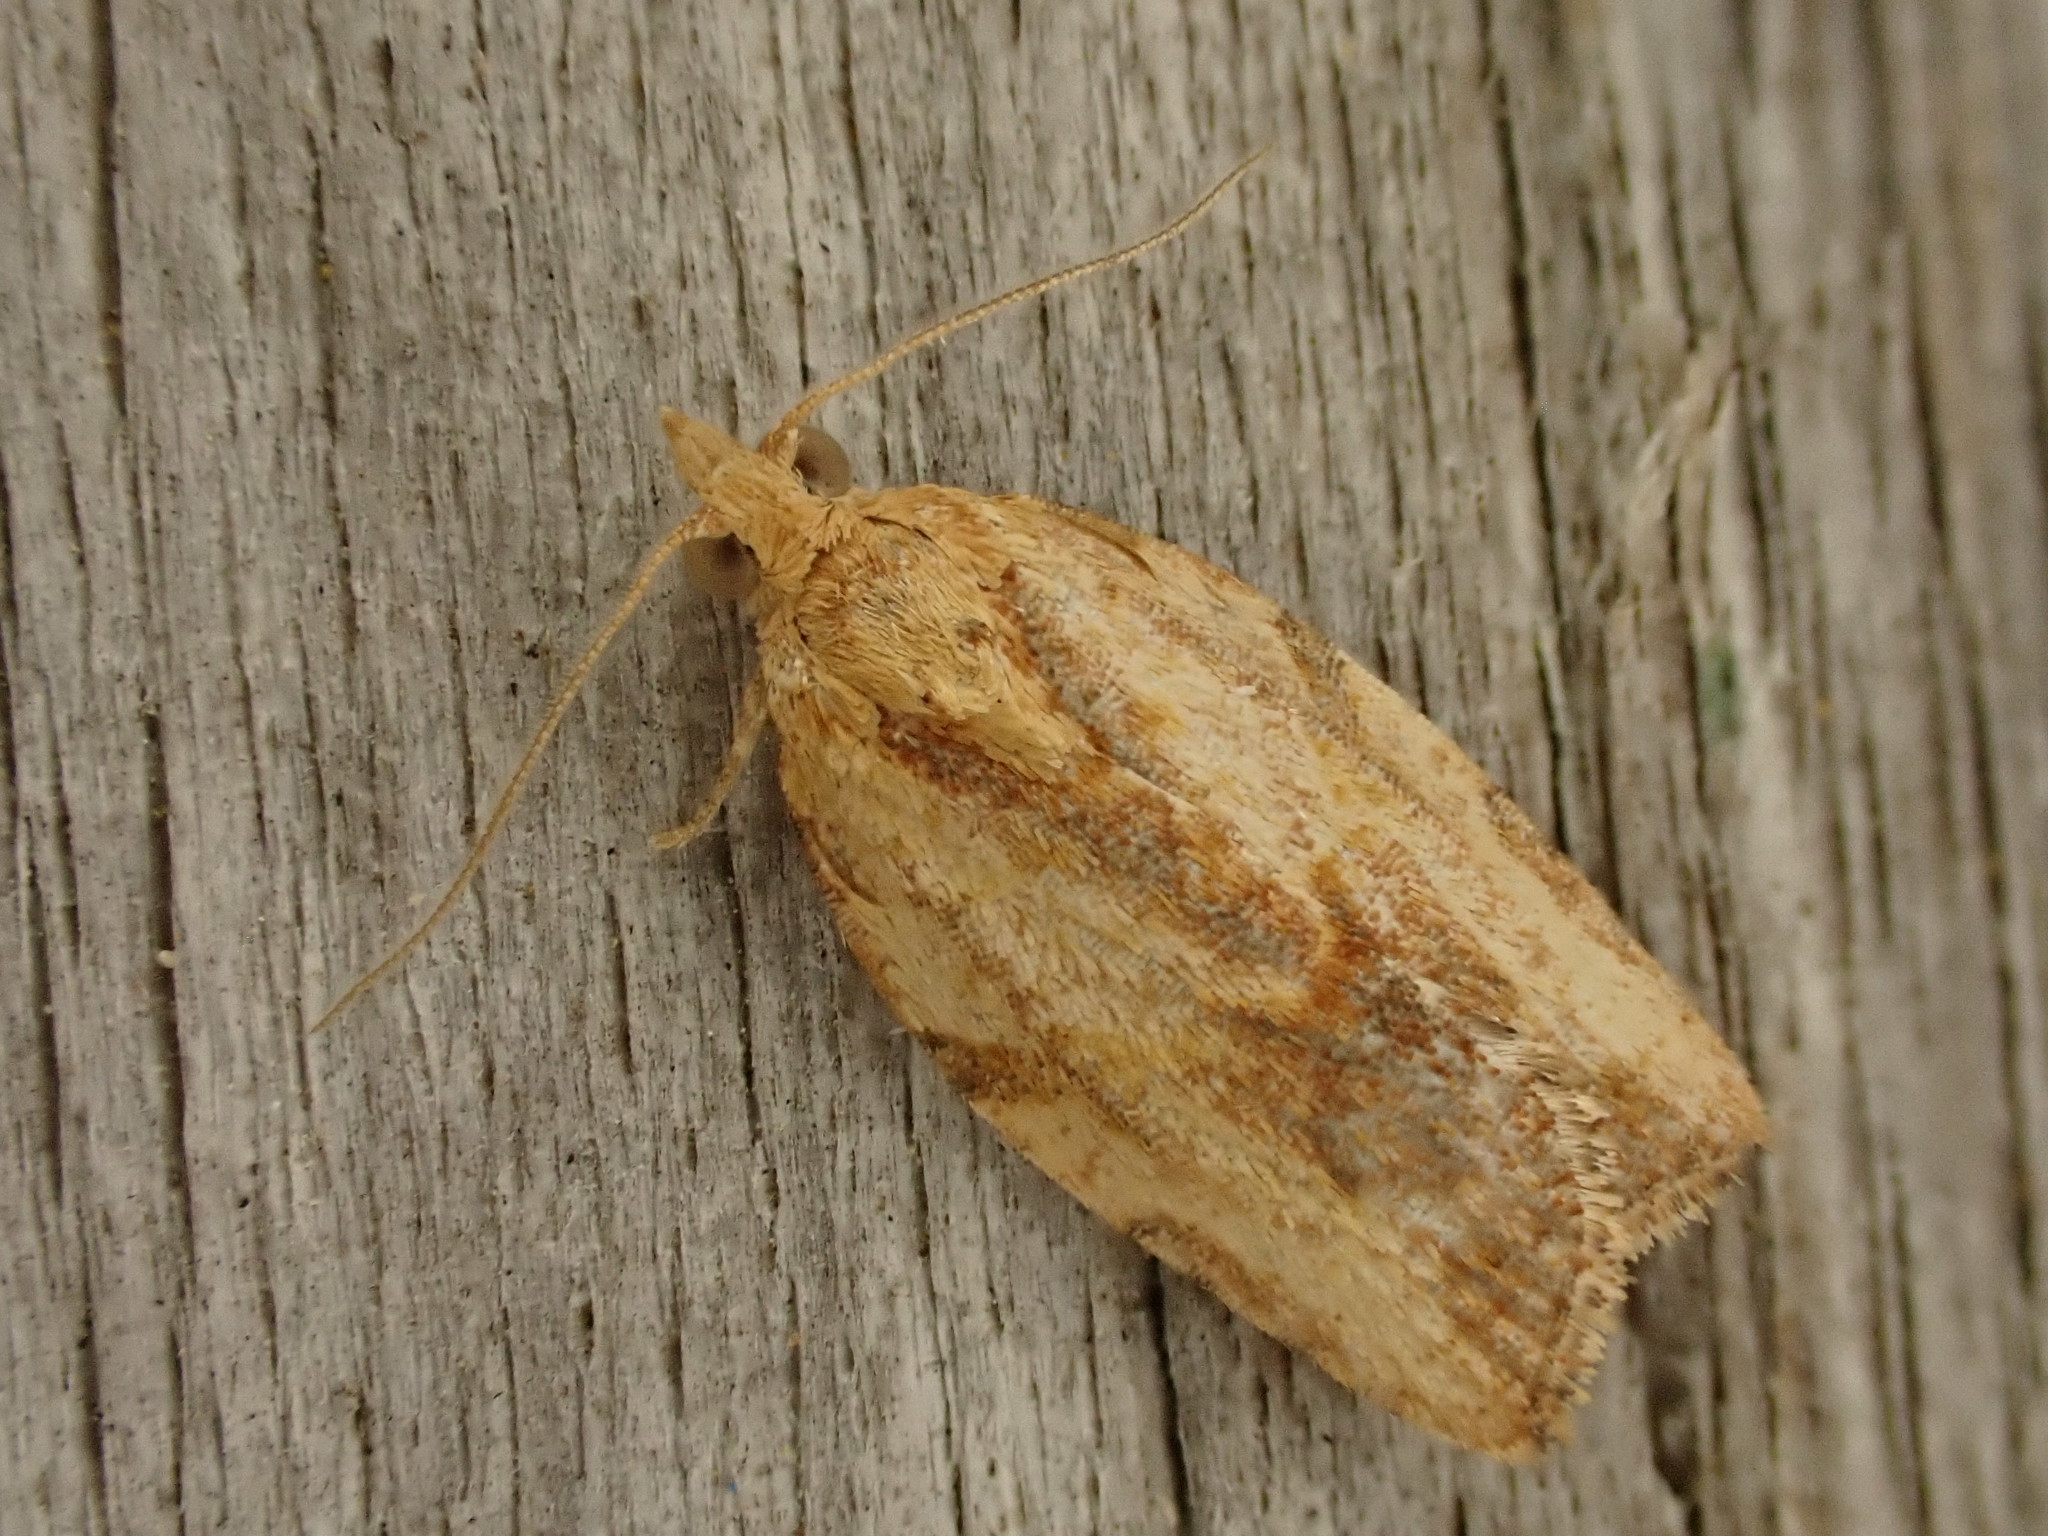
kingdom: Animalia
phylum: Arthropoda
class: Insecta
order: Lepidoptera
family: Tortricidae
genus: Epiphyas
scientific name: Epiphyas postvittana
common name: Light brown apple moth
